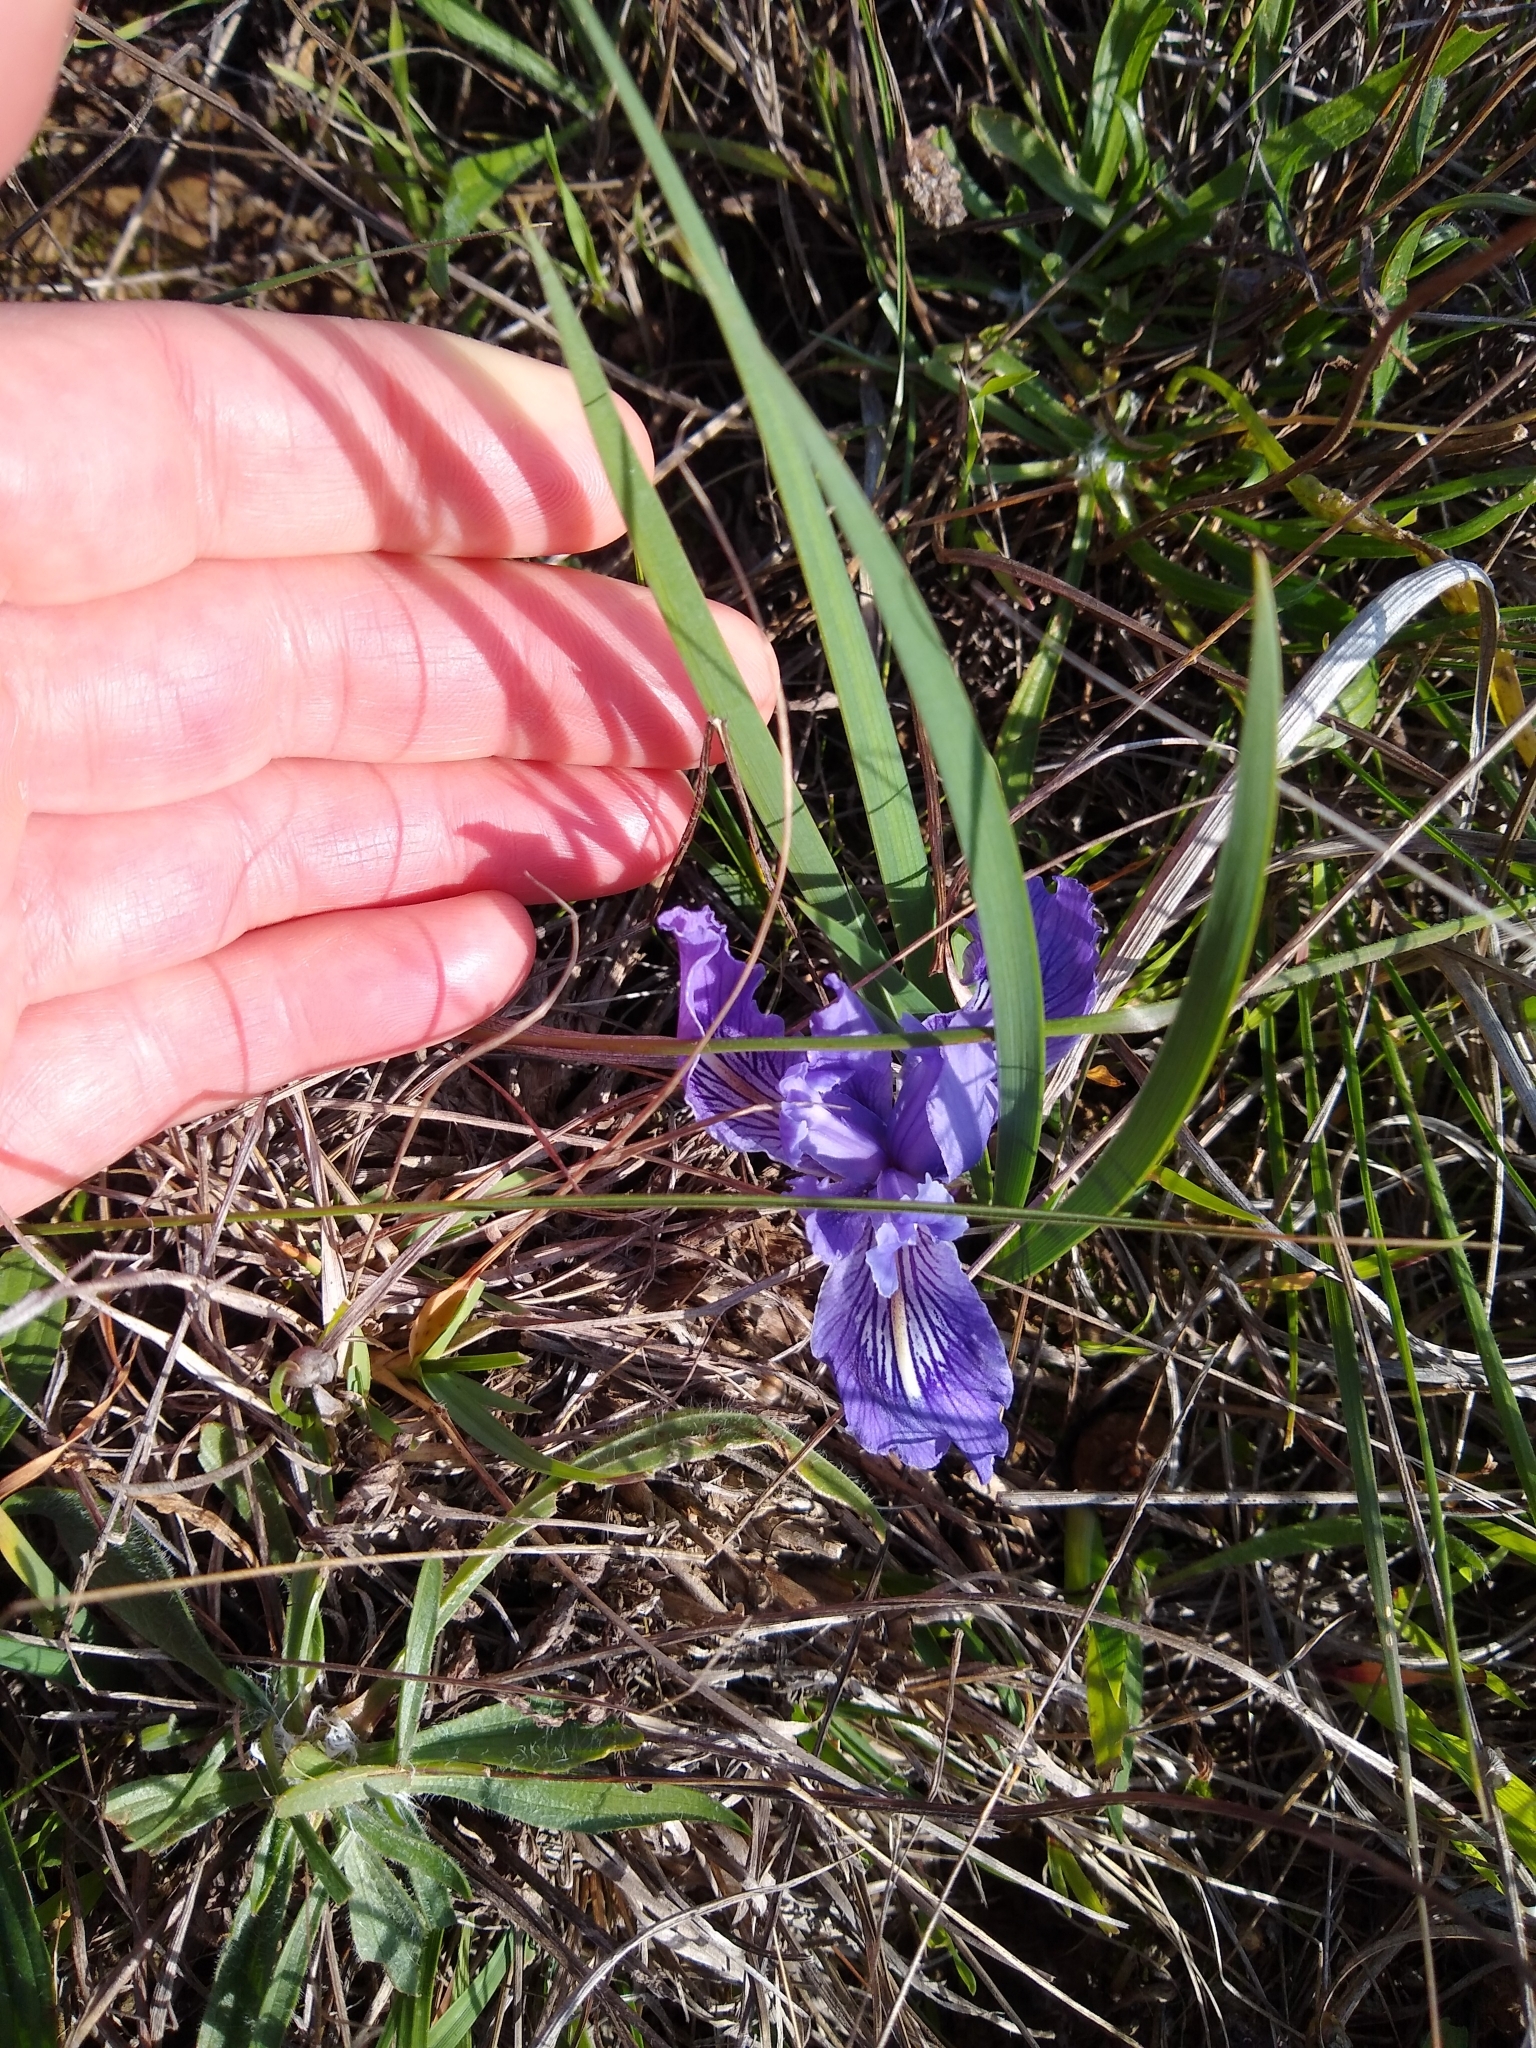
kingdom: Plantae
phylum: Tracheophyta
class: Liliopsida
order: Asparagales
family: Iridaceae
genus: Iris
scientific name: Iris macrosiphon
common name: Ground iris
